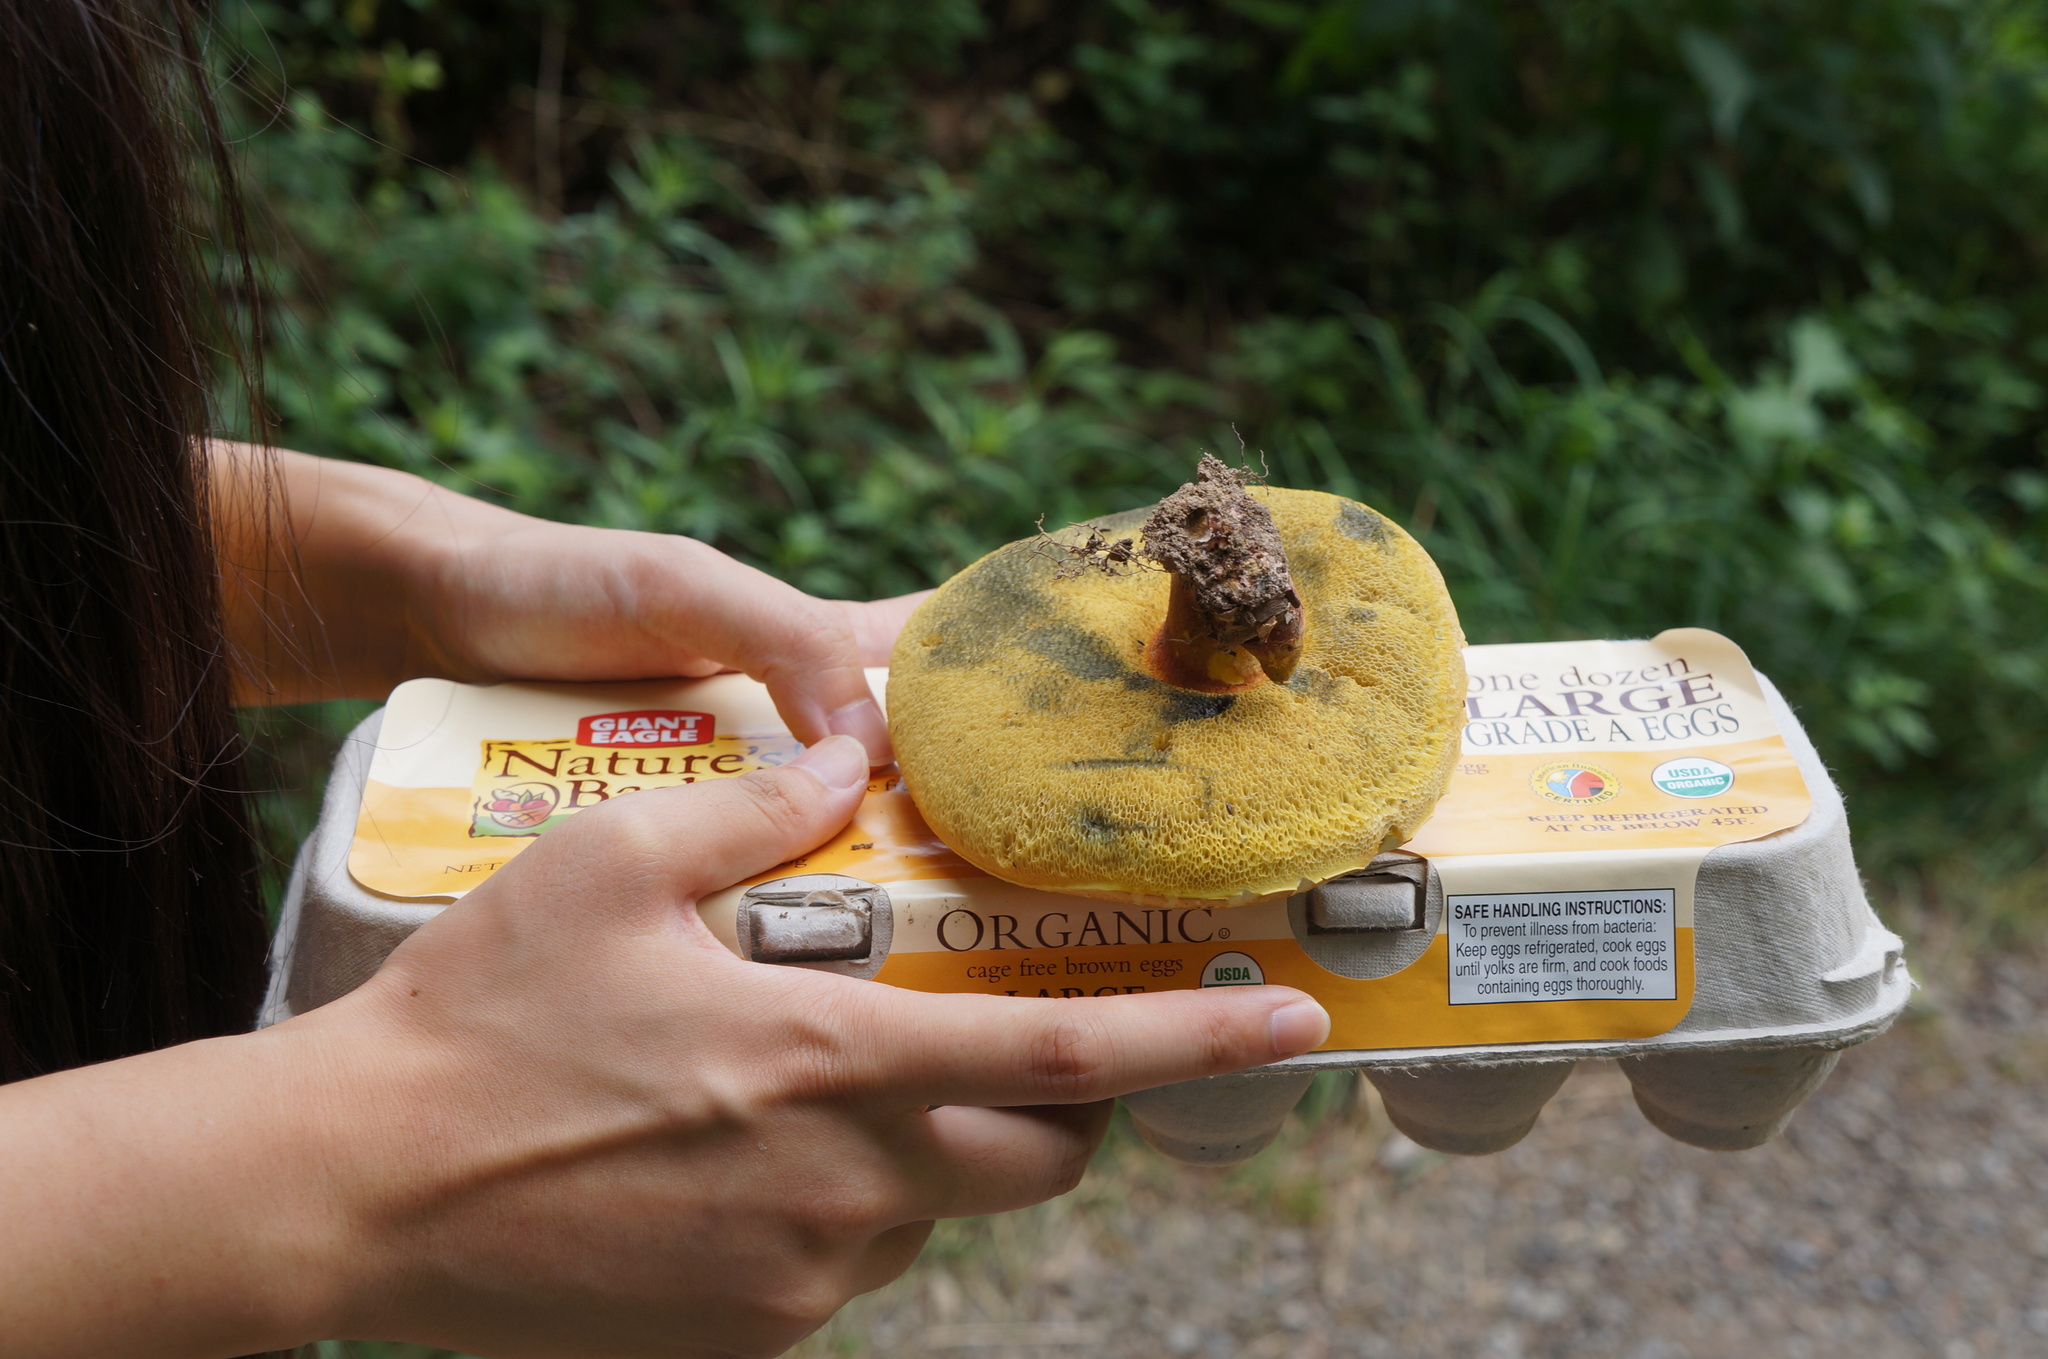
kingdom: Fungi
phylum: Basidiomycota
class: Agaricomycetes
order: Boletales
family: Boletaceae
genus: Xerocomellus
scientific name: Xerocomellus chrysenteron
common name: Red-cracking bolete
